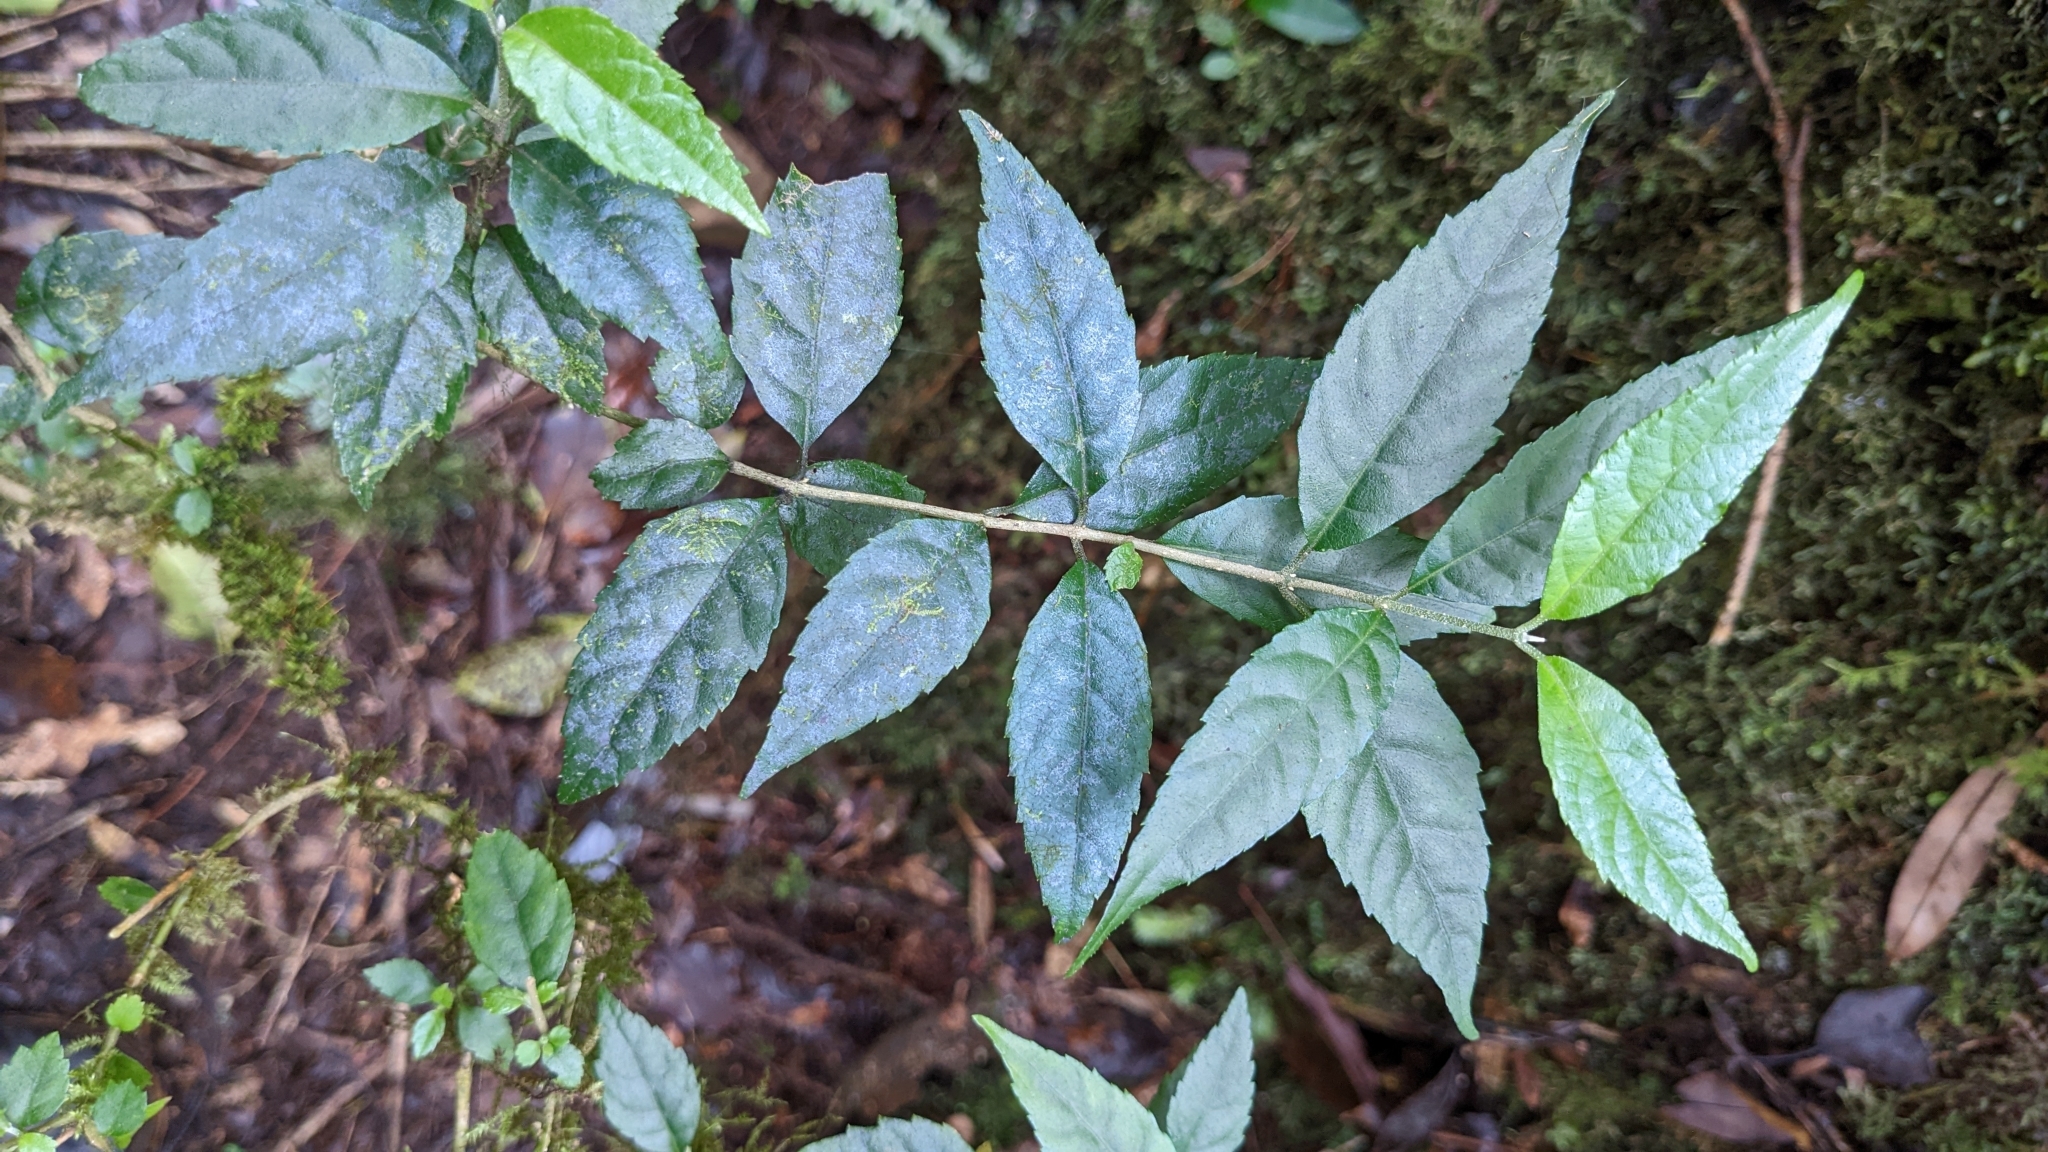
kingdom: Plantae
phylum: Tracheophyta
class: Magnoliopsida
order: Lamiales
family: Lamiaceae
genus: Callicarpa
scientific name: Callicarpa randaiensis
